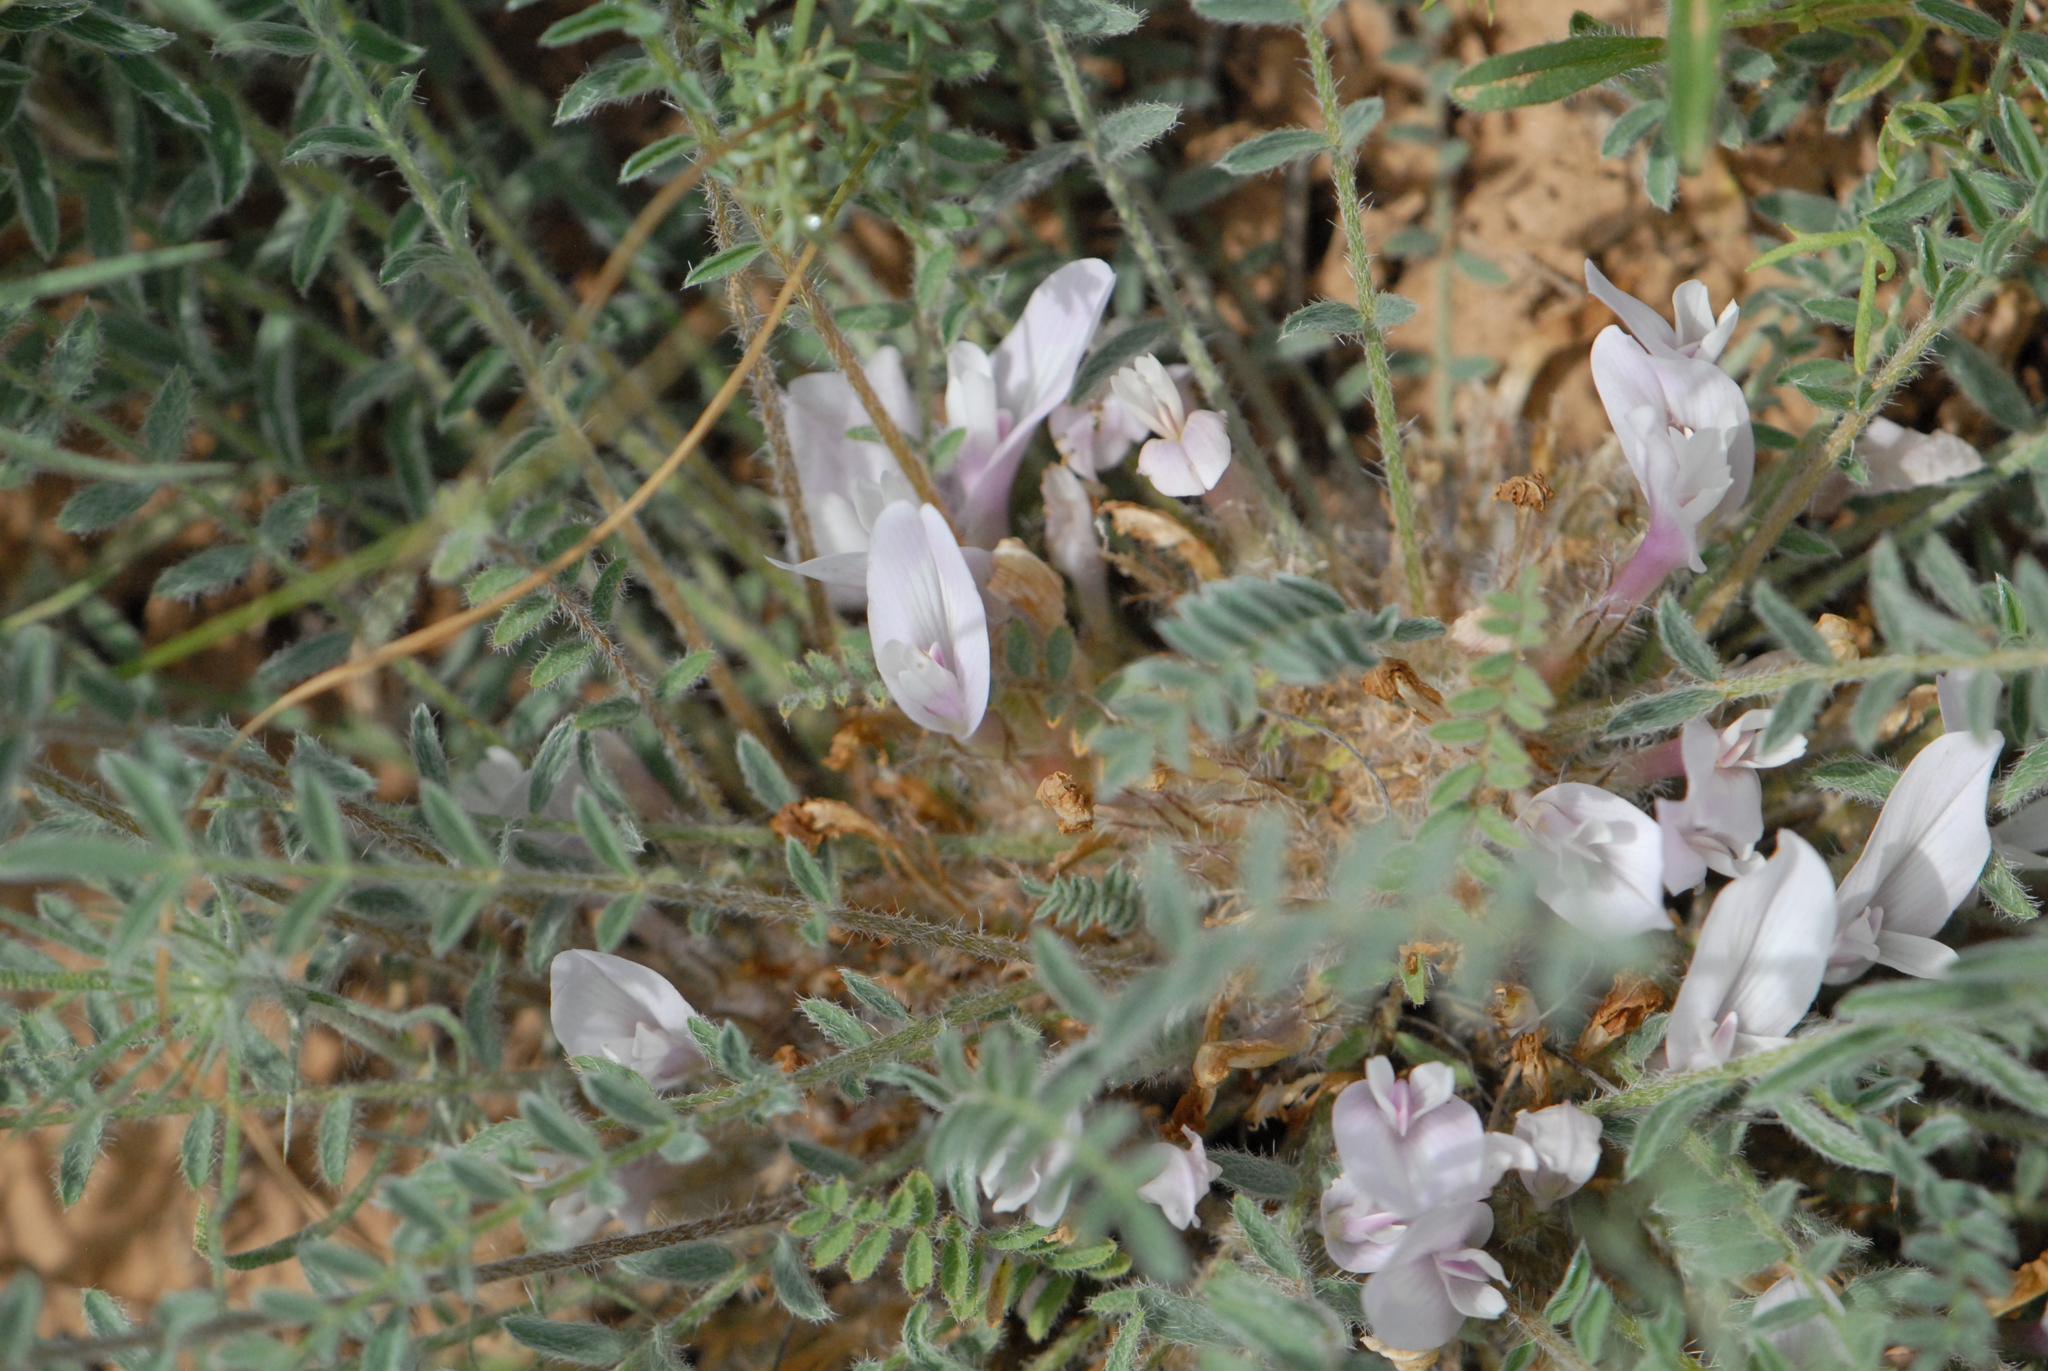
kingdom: Plantae
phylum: Tracheophyta
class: Magnoliopsida
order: Fabales
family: Fabaceae
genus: Astragalus
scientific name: Astragalus dolichophyllus
